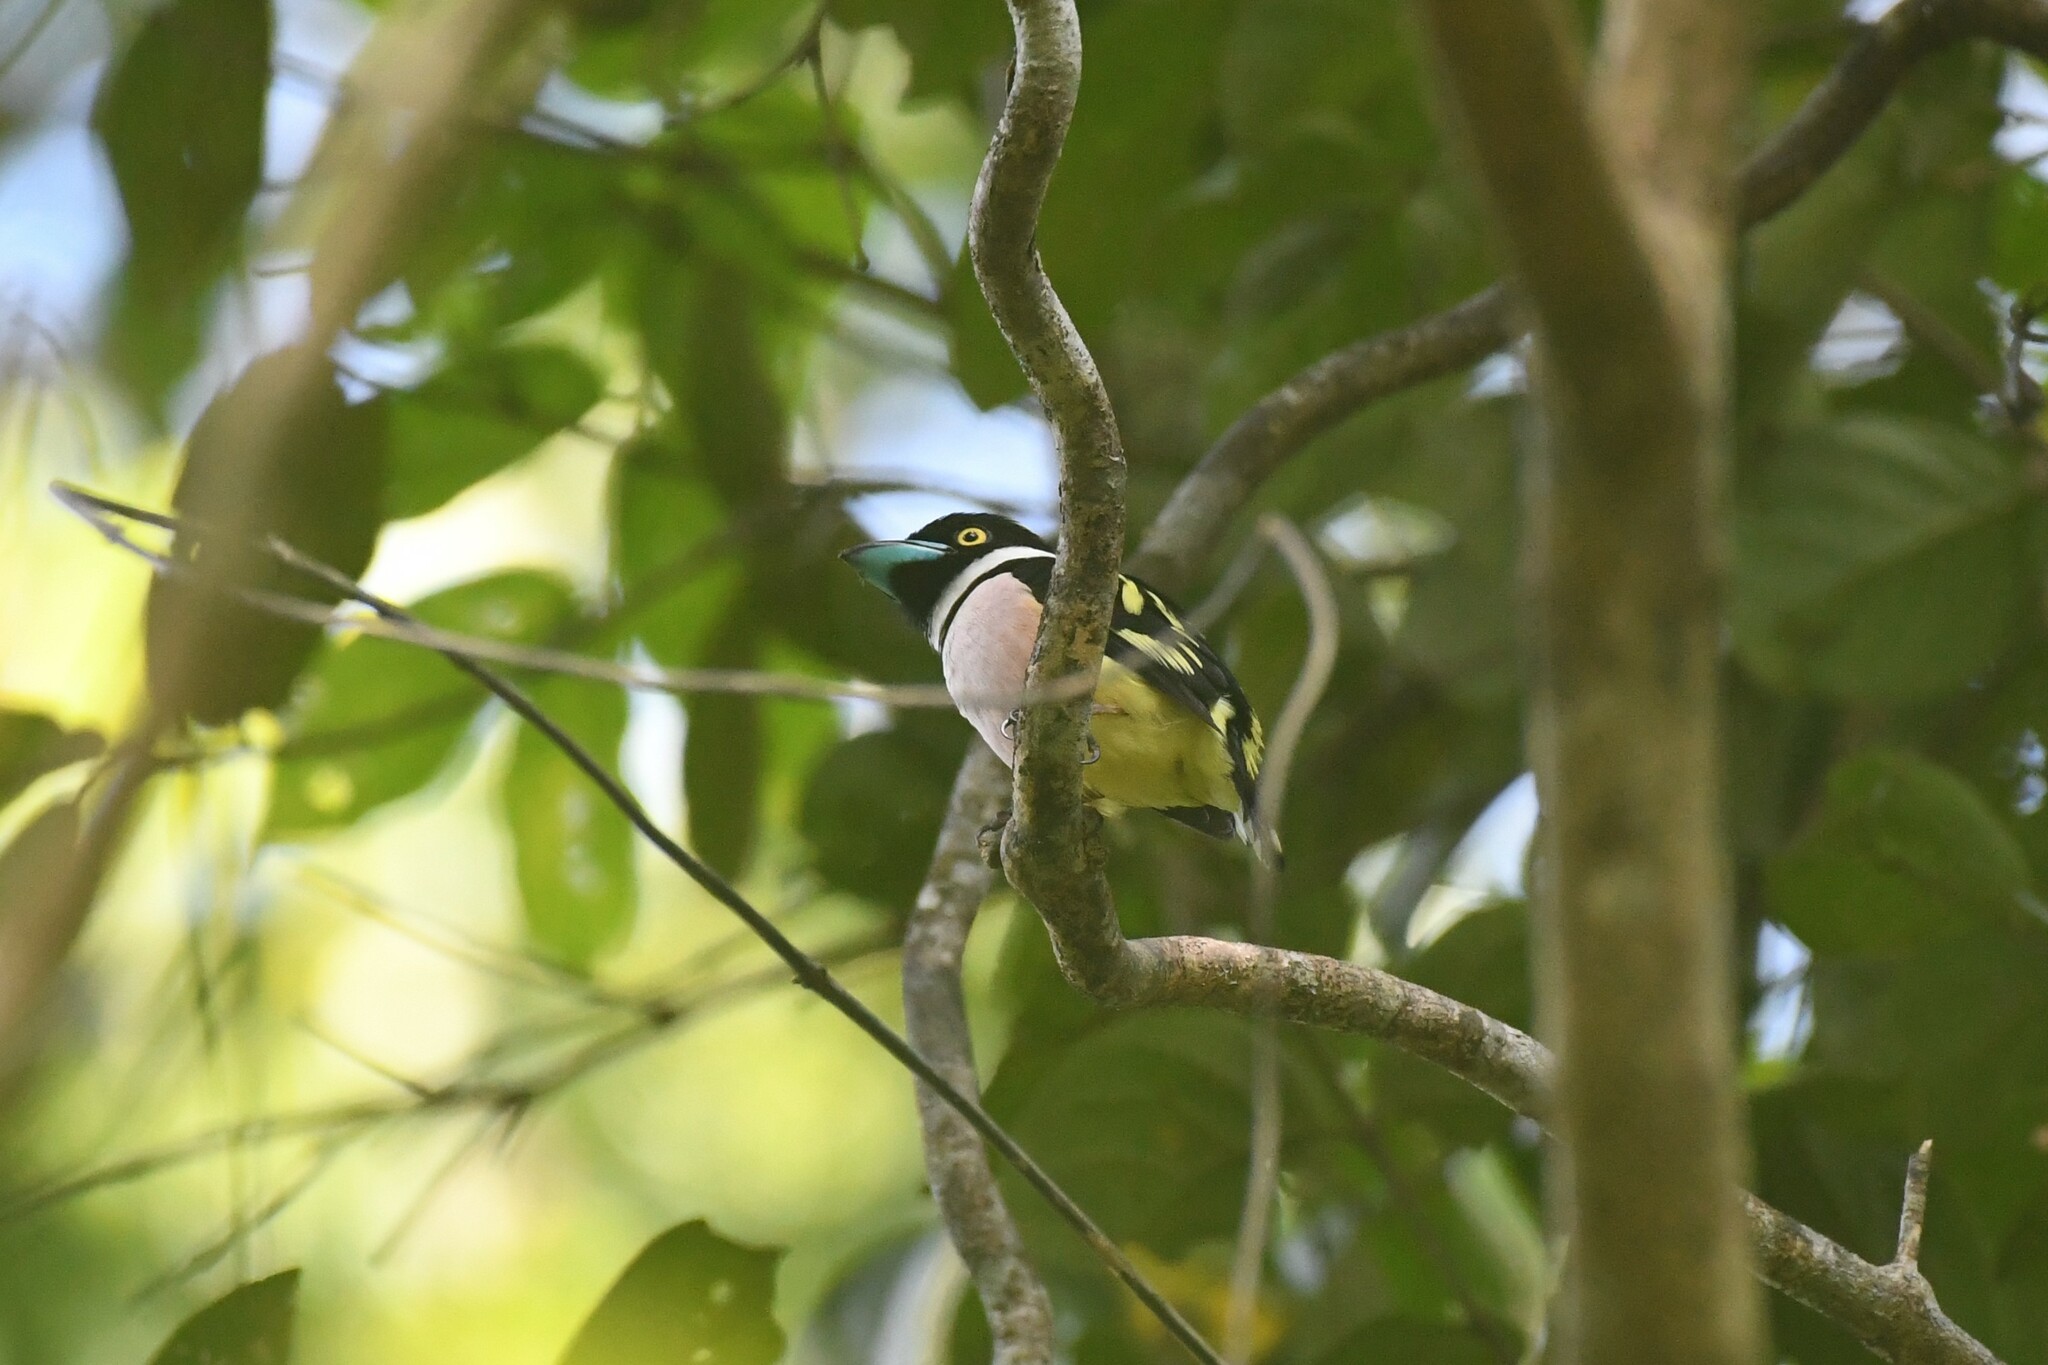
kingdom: Animalia
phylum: Chordata
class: Aves
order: Passeriformes
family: Eurylaimidae
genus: Eurylaimus
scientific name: Eurylaimus ochromalus
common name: Black-and-yellow broadbill
